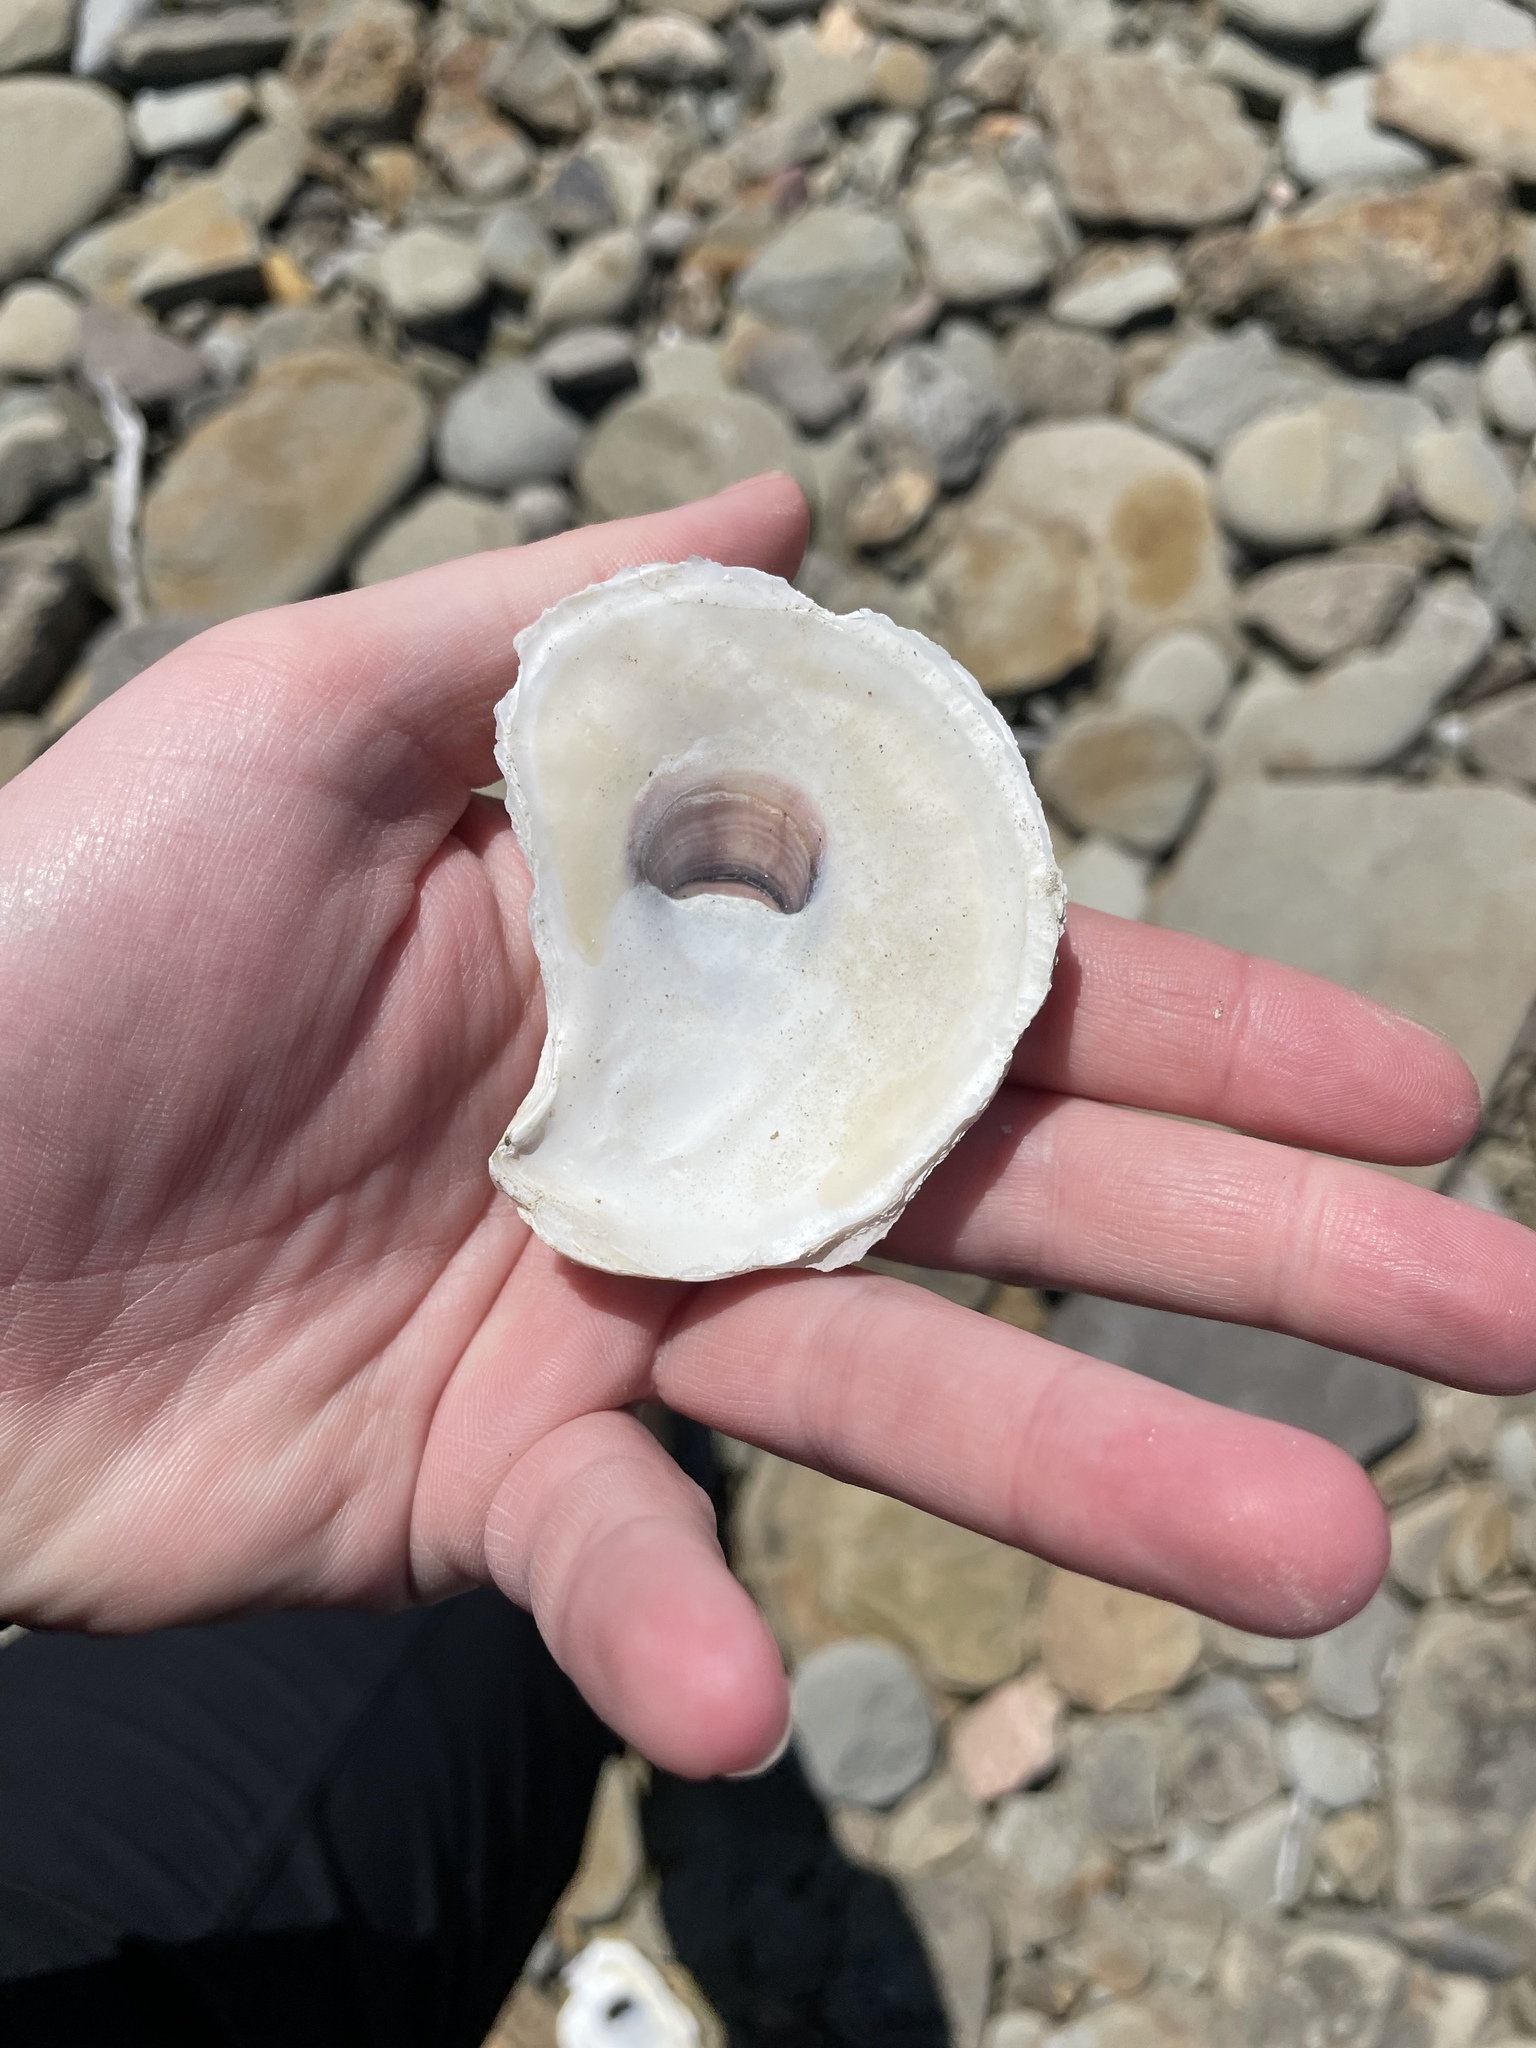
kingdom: Animalia
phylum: Mollusca
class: Bivalvia
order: Ostreida
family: Ostreidae
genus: Crassostrea
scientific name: Crassostrea virginica
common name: American oyster
